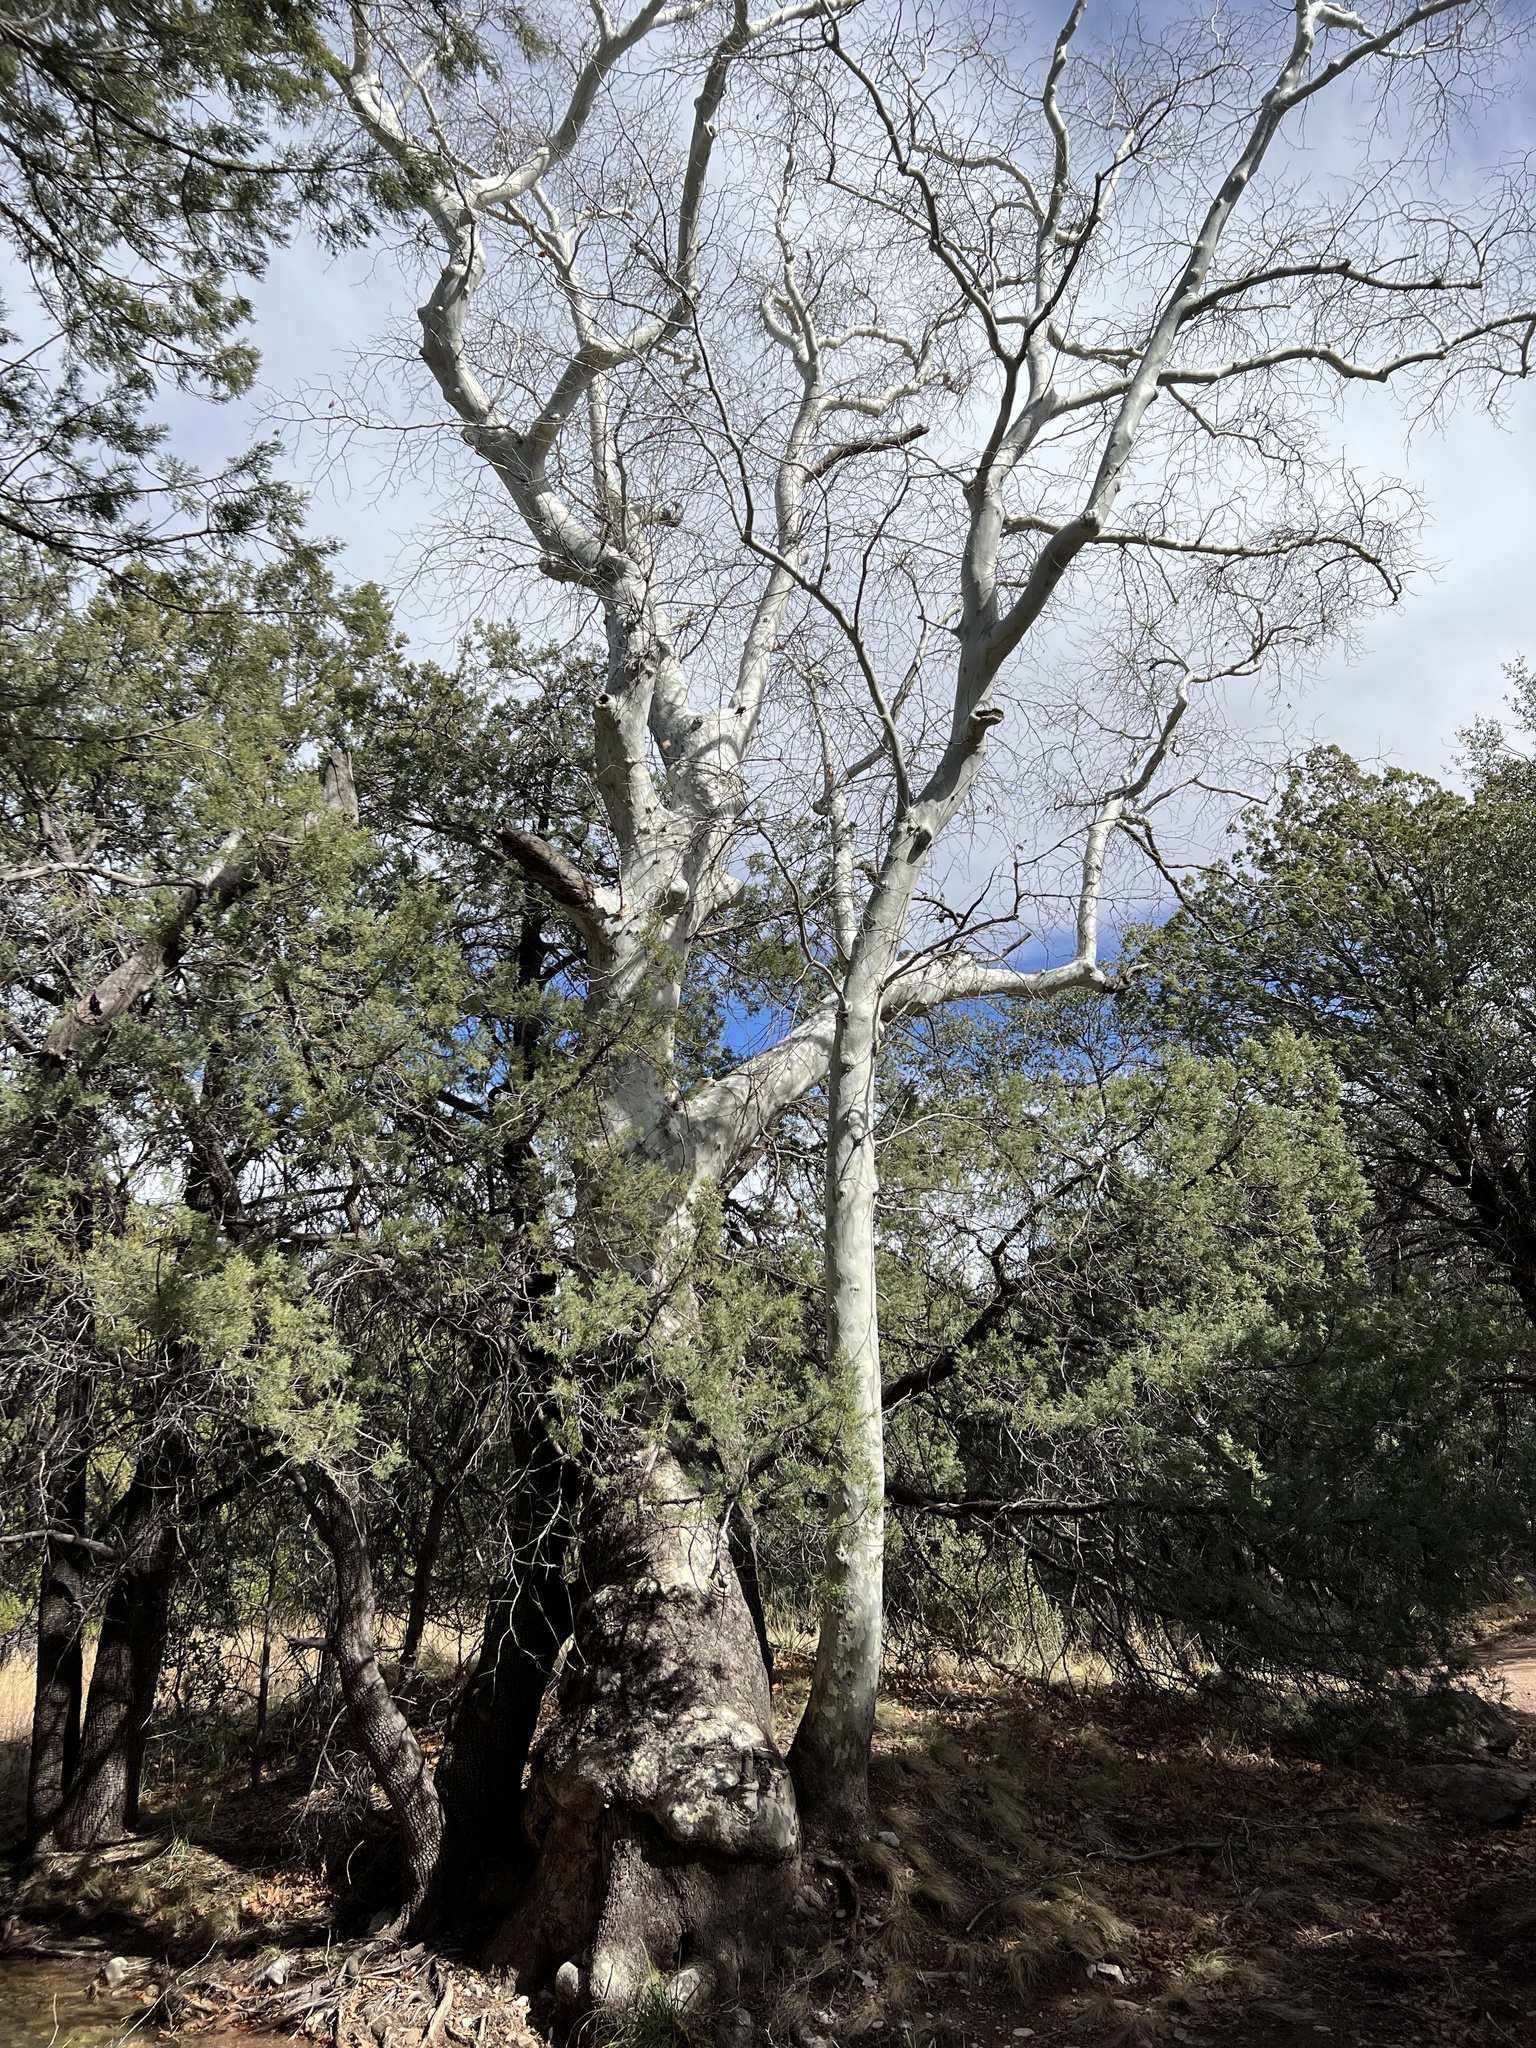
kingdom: Plantae
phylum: Tracheophyta
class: Magnoliopsida
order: Proteales
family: Platanaceae
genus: Platanus
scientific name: Platanus wrightii
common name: Arizona sycamore
